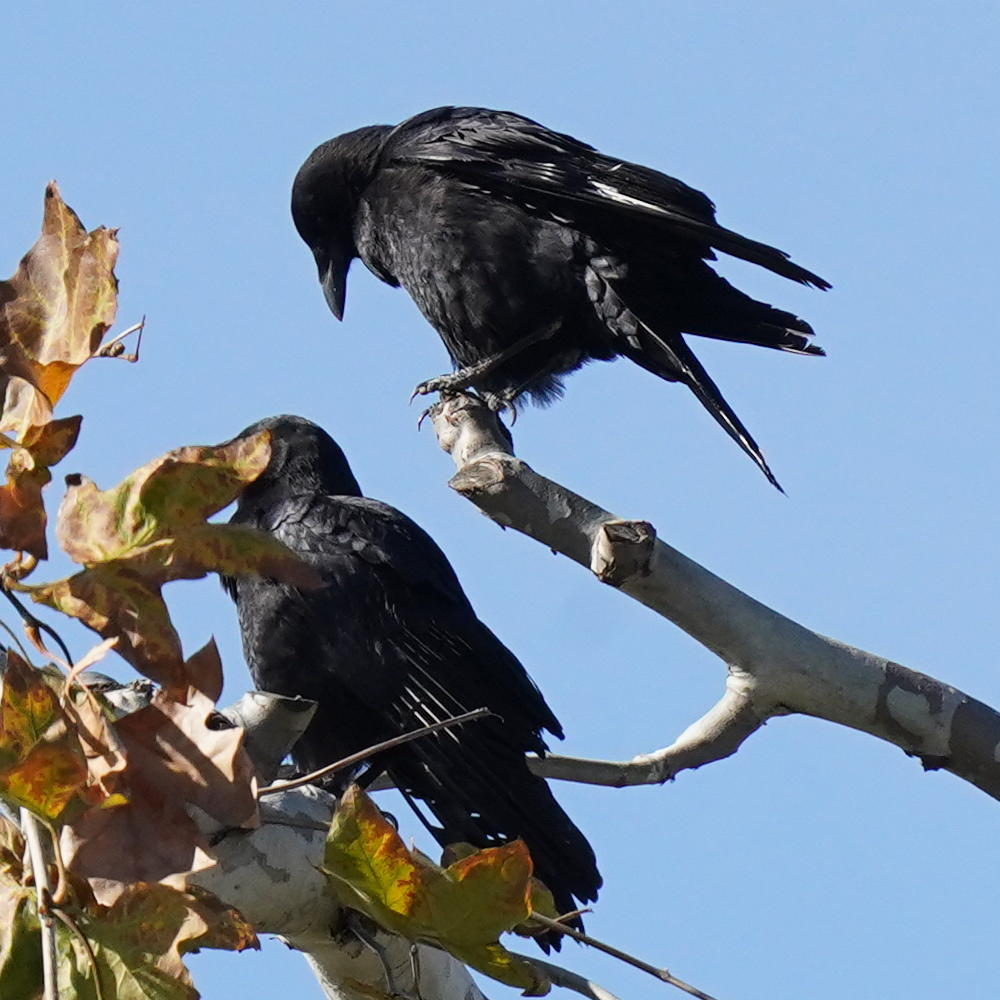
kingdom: Animalia
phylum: Chordata
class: Aves
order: Passeriformes
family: Corvidae
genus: Corvus
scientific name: Corvus brachyrhynchos
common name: American crow
